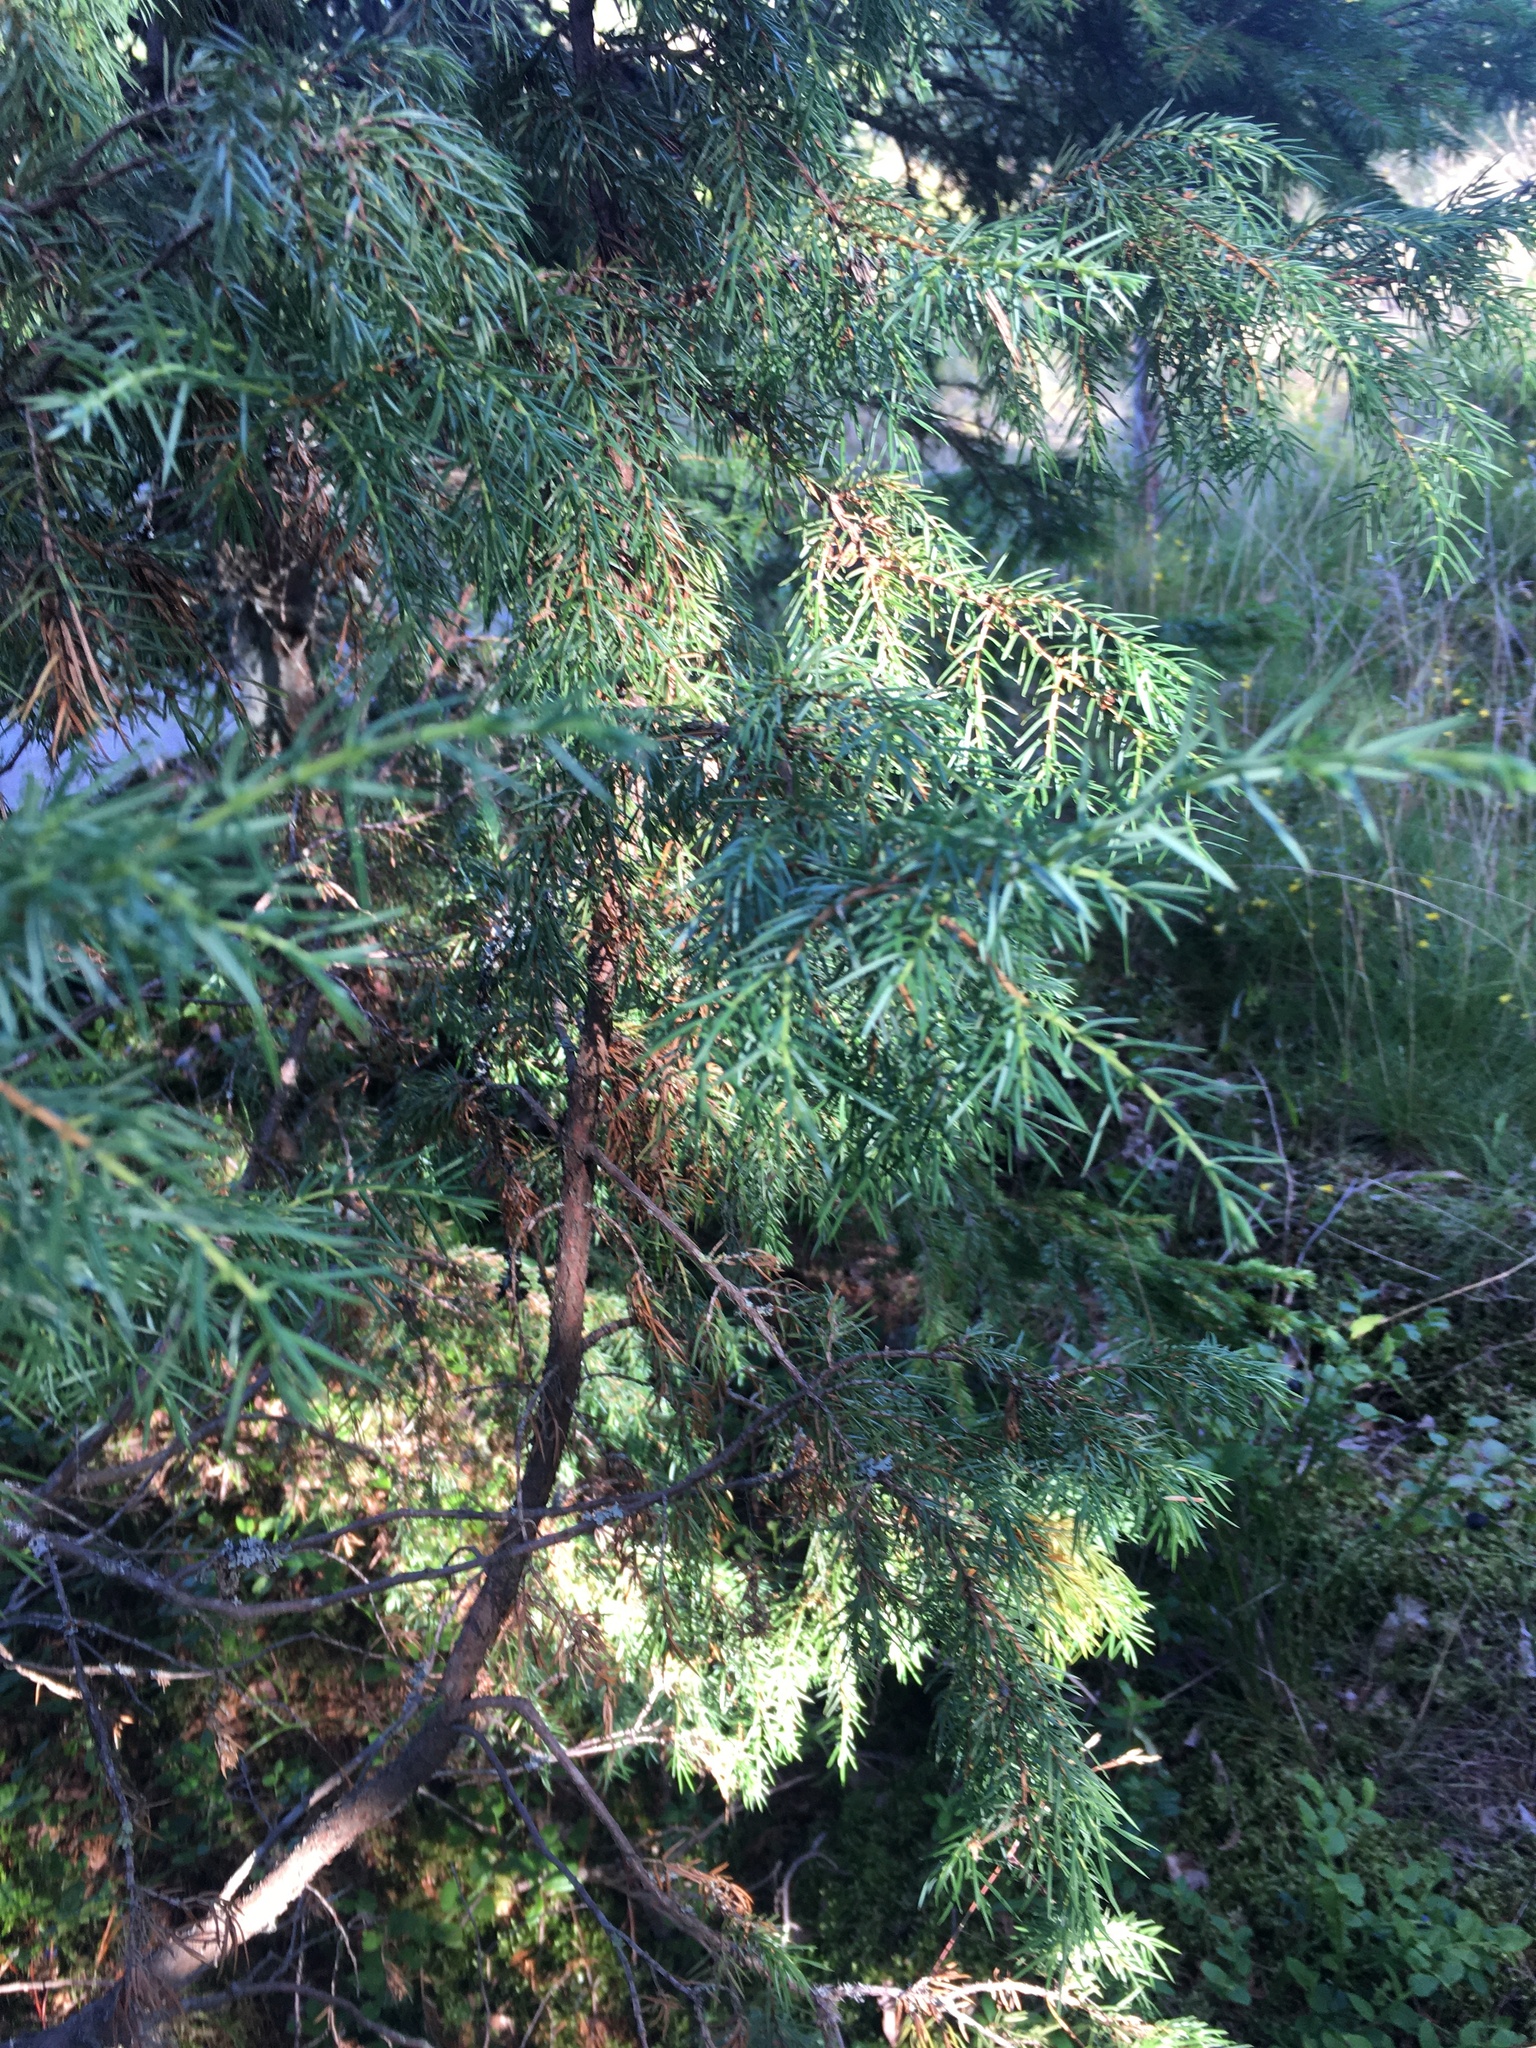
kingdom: Plantae
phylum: Tracheophyta
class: Pinopsida
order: Pinales
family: Cupressaceae
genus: Juniperus
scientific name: Juniperus communis
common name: Common juniper
